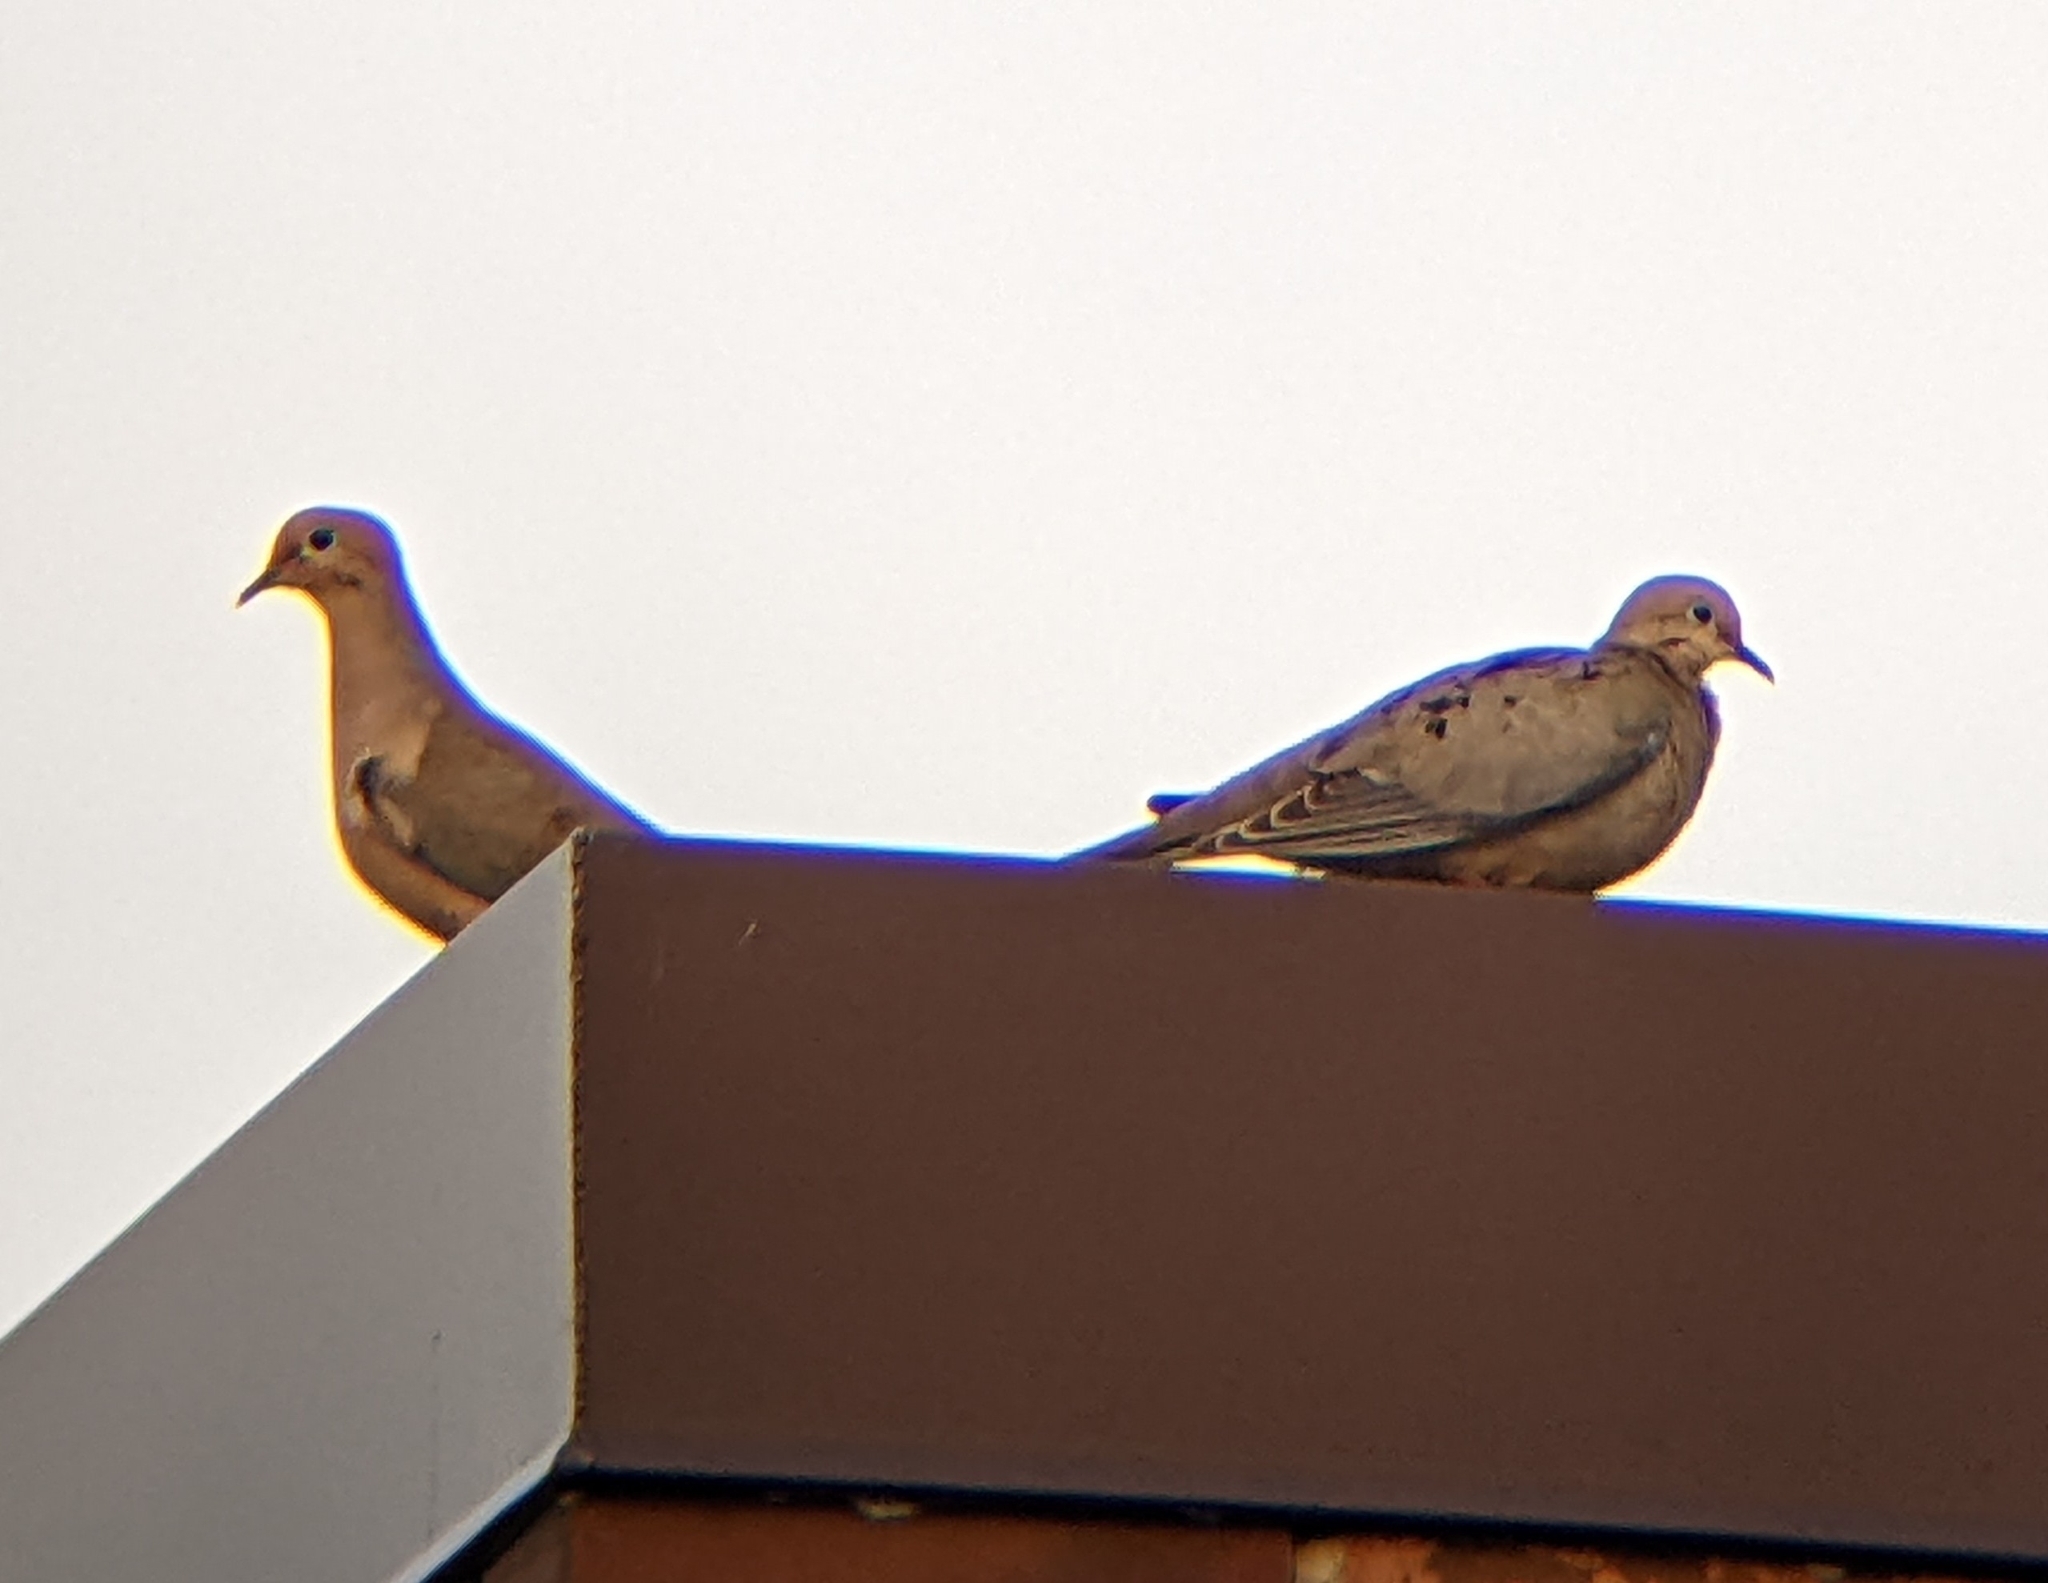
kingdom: Animalia
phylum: Chordata
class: Aves
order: Columbiformes
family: Columbidae
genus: Zenaida
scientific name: Zenaida macroura
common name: Mourning dove
